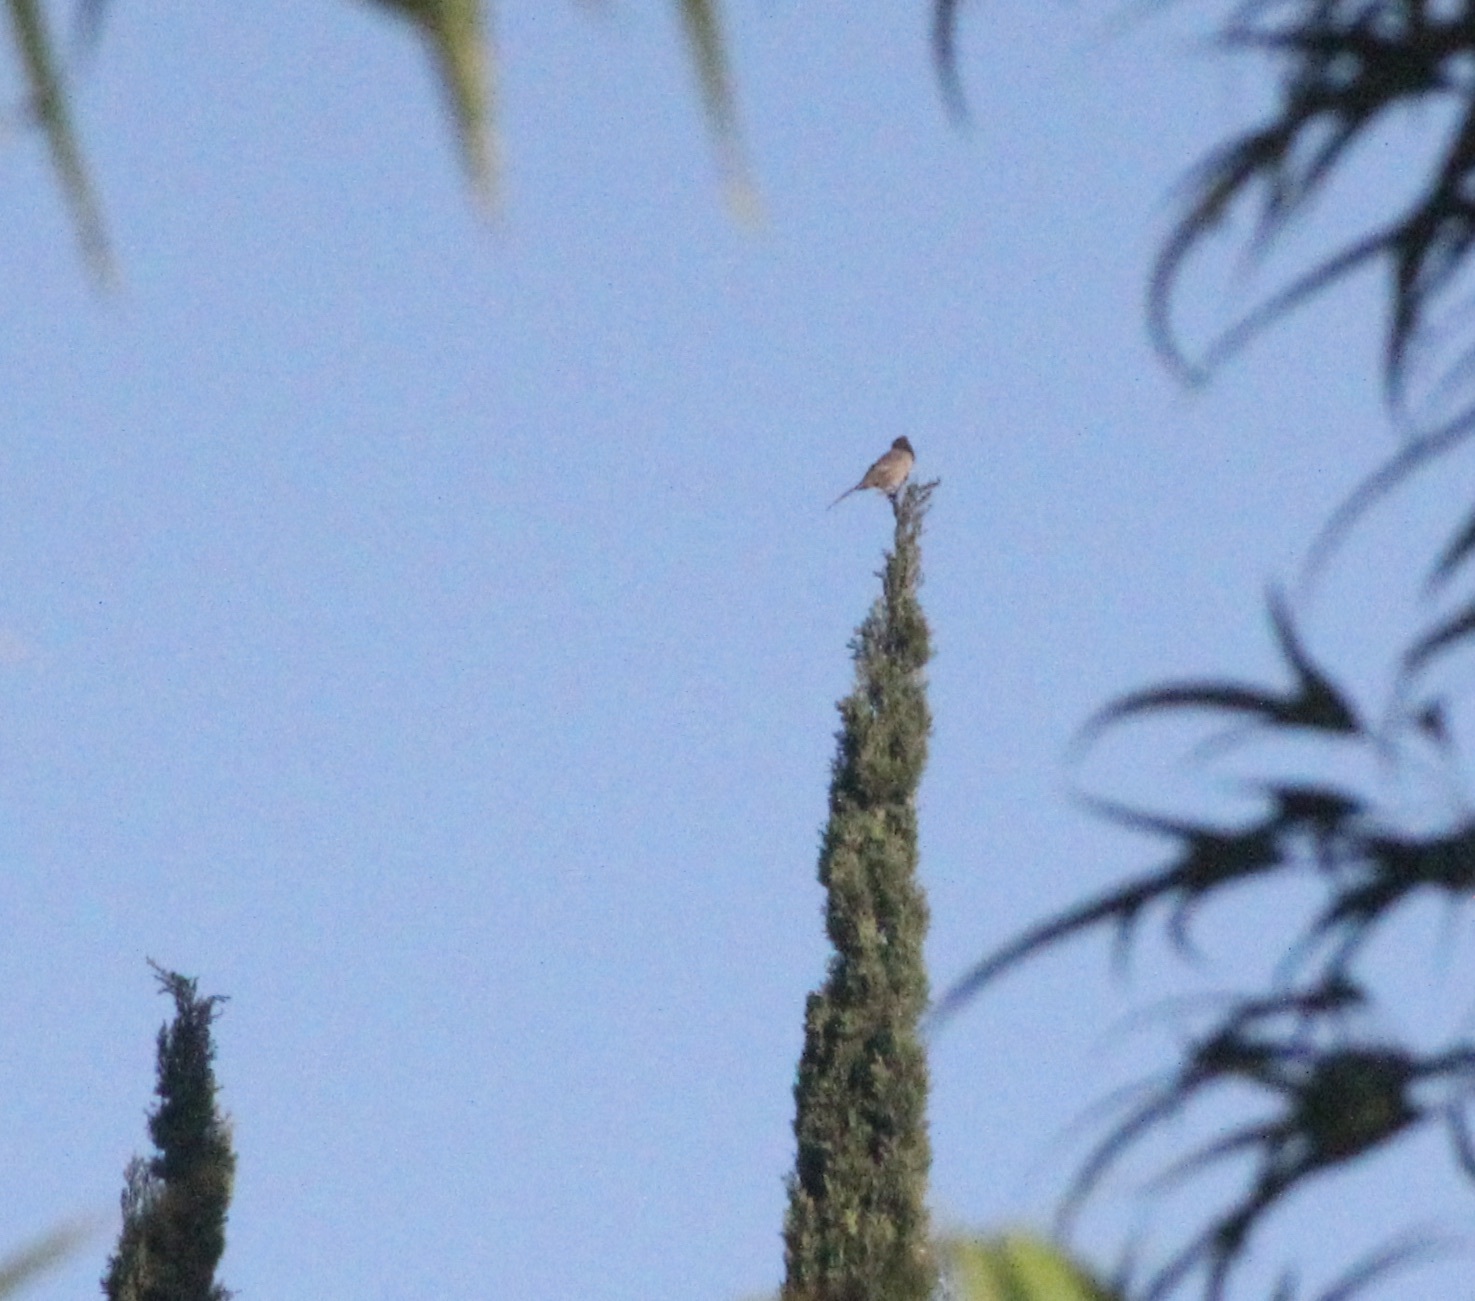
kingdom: Animalia
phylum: Chordata
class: Aves
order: Passeriformes
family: Passerellidae
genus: Junco
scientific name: Junco hyemalis
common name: Dark-eyed junco
